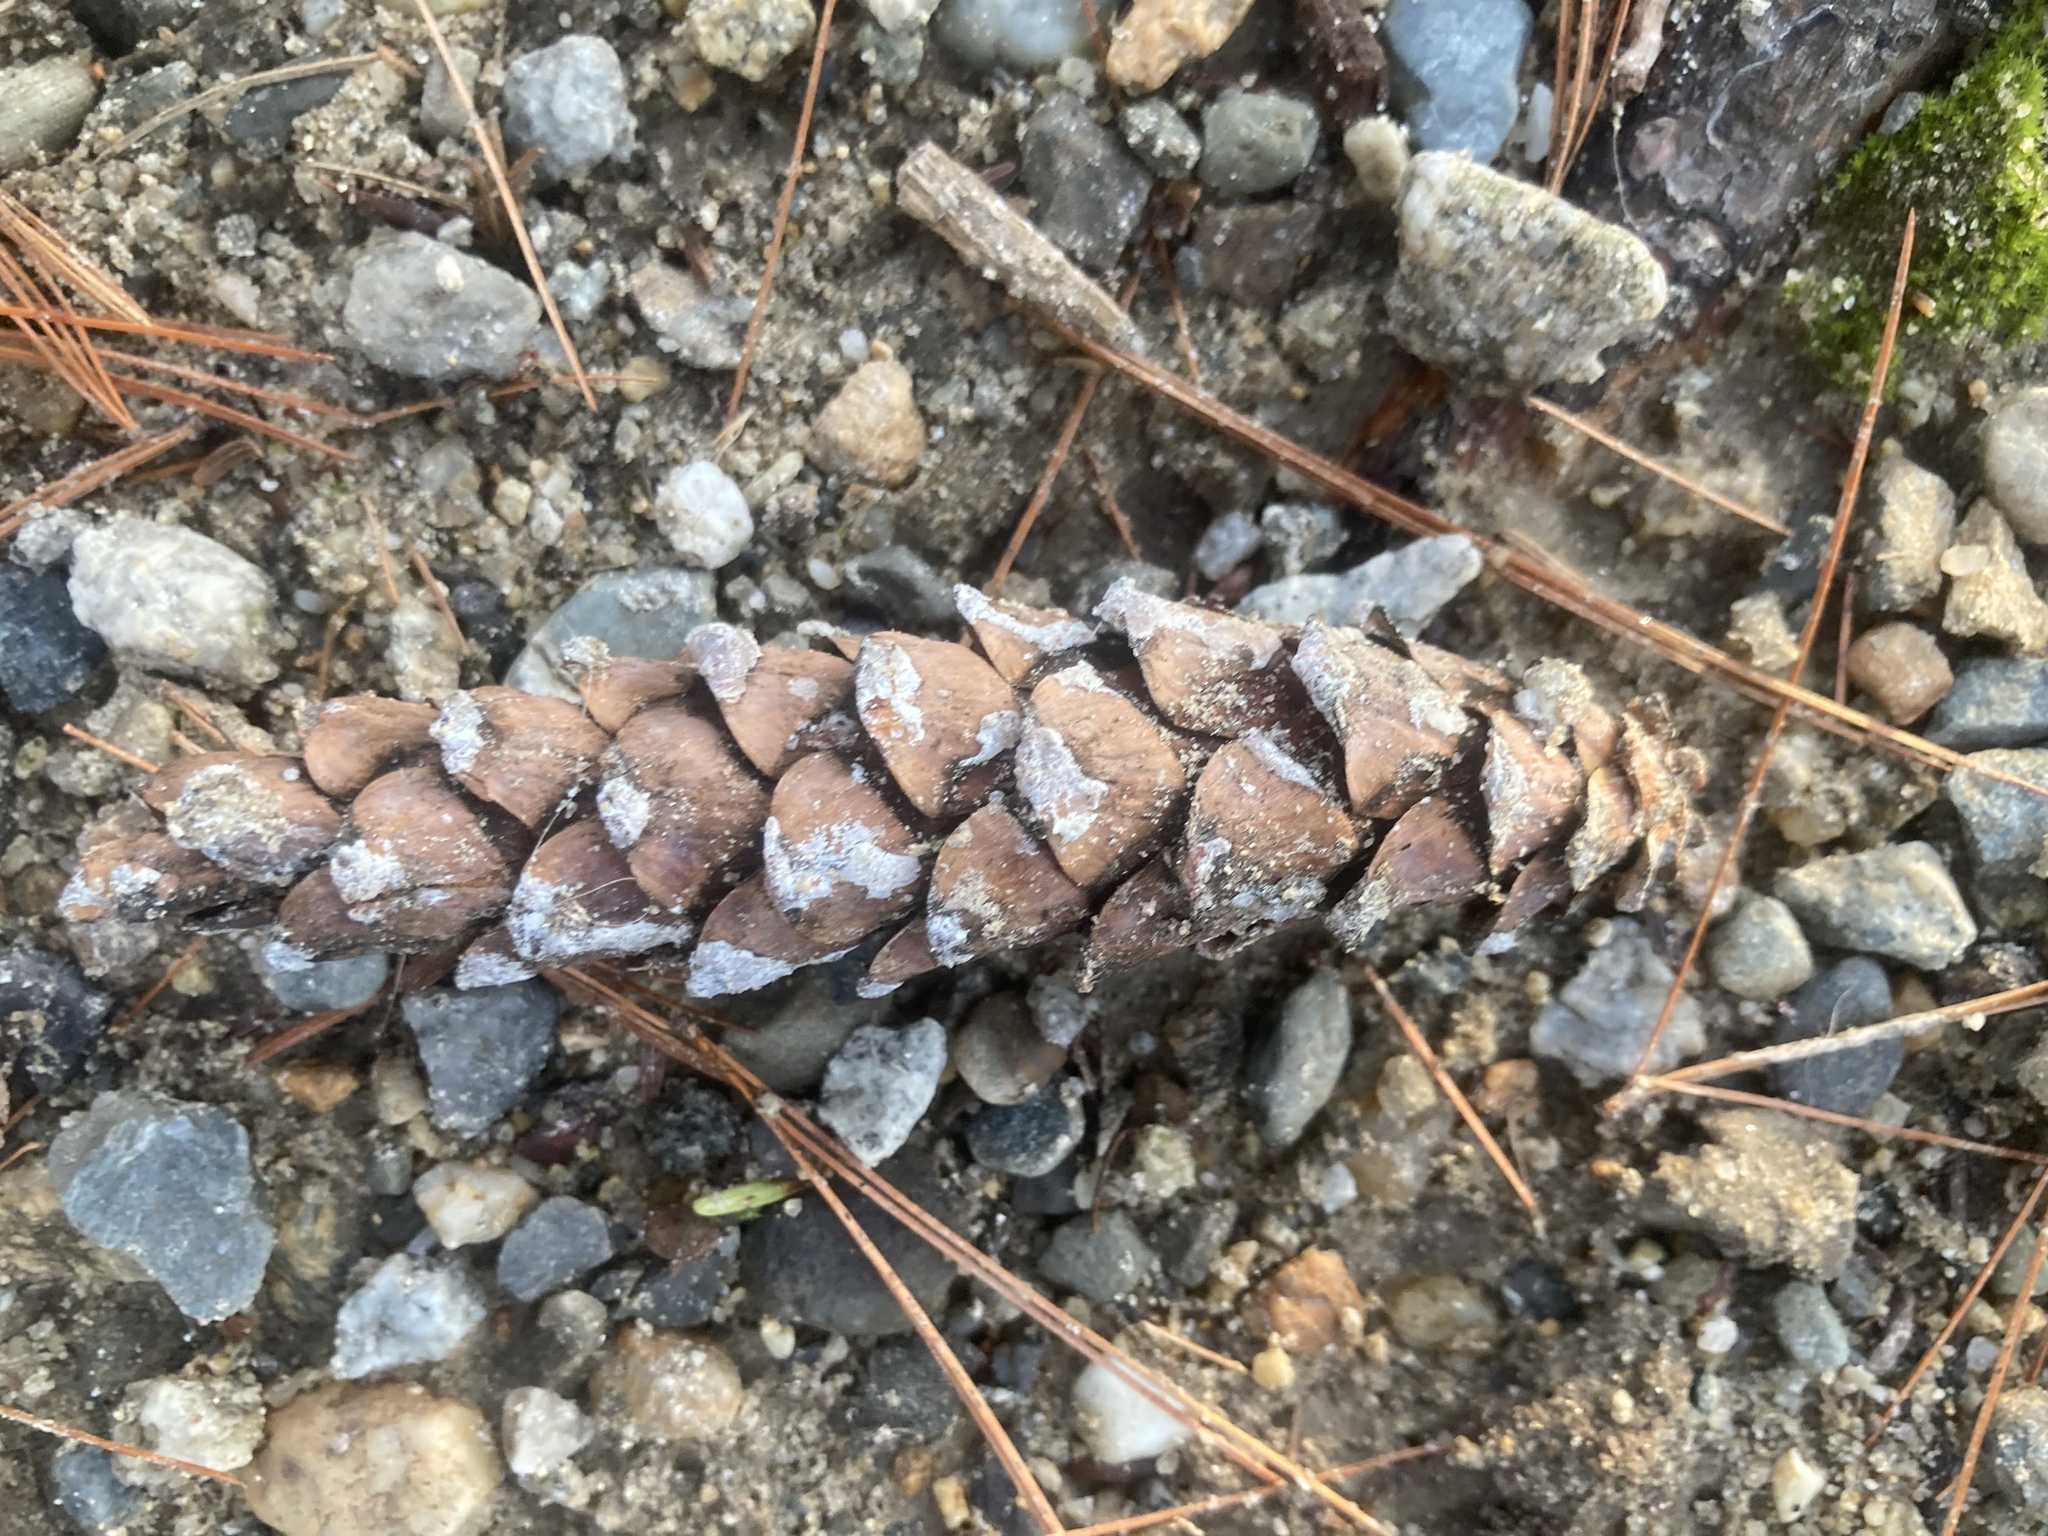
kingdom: Plantae
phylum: Tracheophyta
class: Pinopsida
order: Pinales
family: Pinaceae
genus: Pinus
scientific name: Pinus strobus
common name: Weymouth pine
